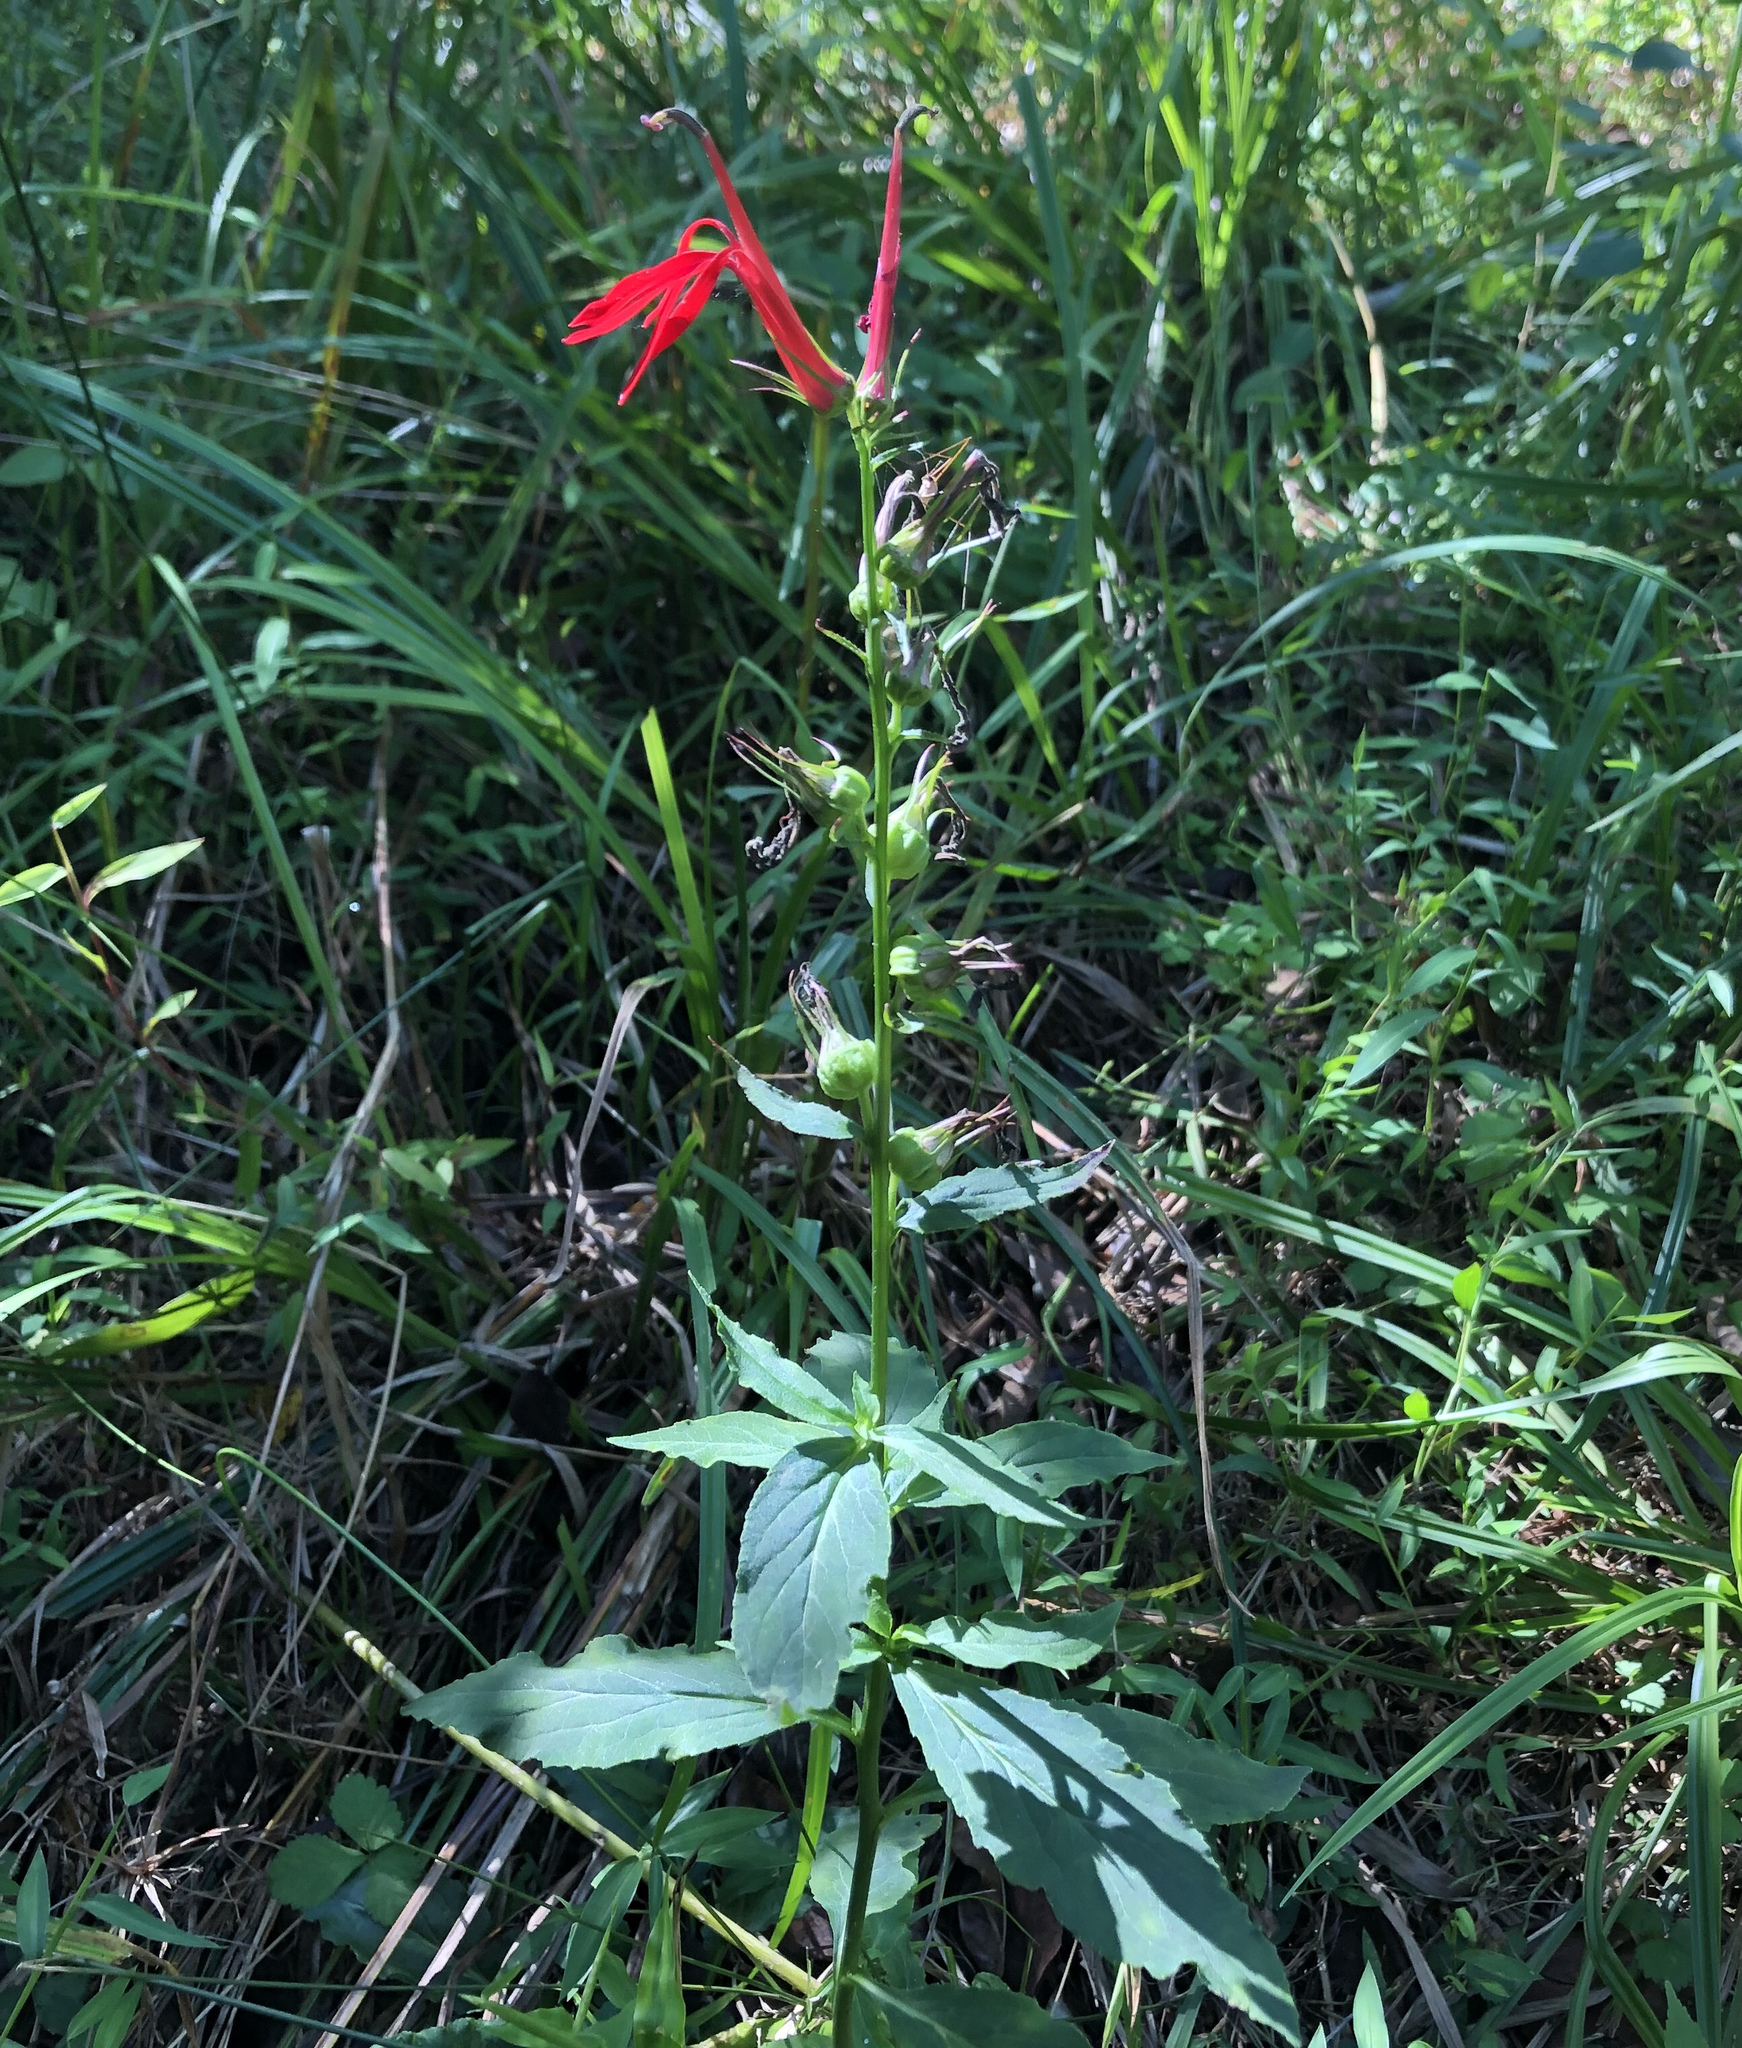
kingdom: Plantae
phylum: Tracheophyta
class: Magnoliopsida
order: Asterales
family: Campanulaceae
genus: Lobelia
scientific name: Lobelia cardinalis
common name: Cardinal flower
